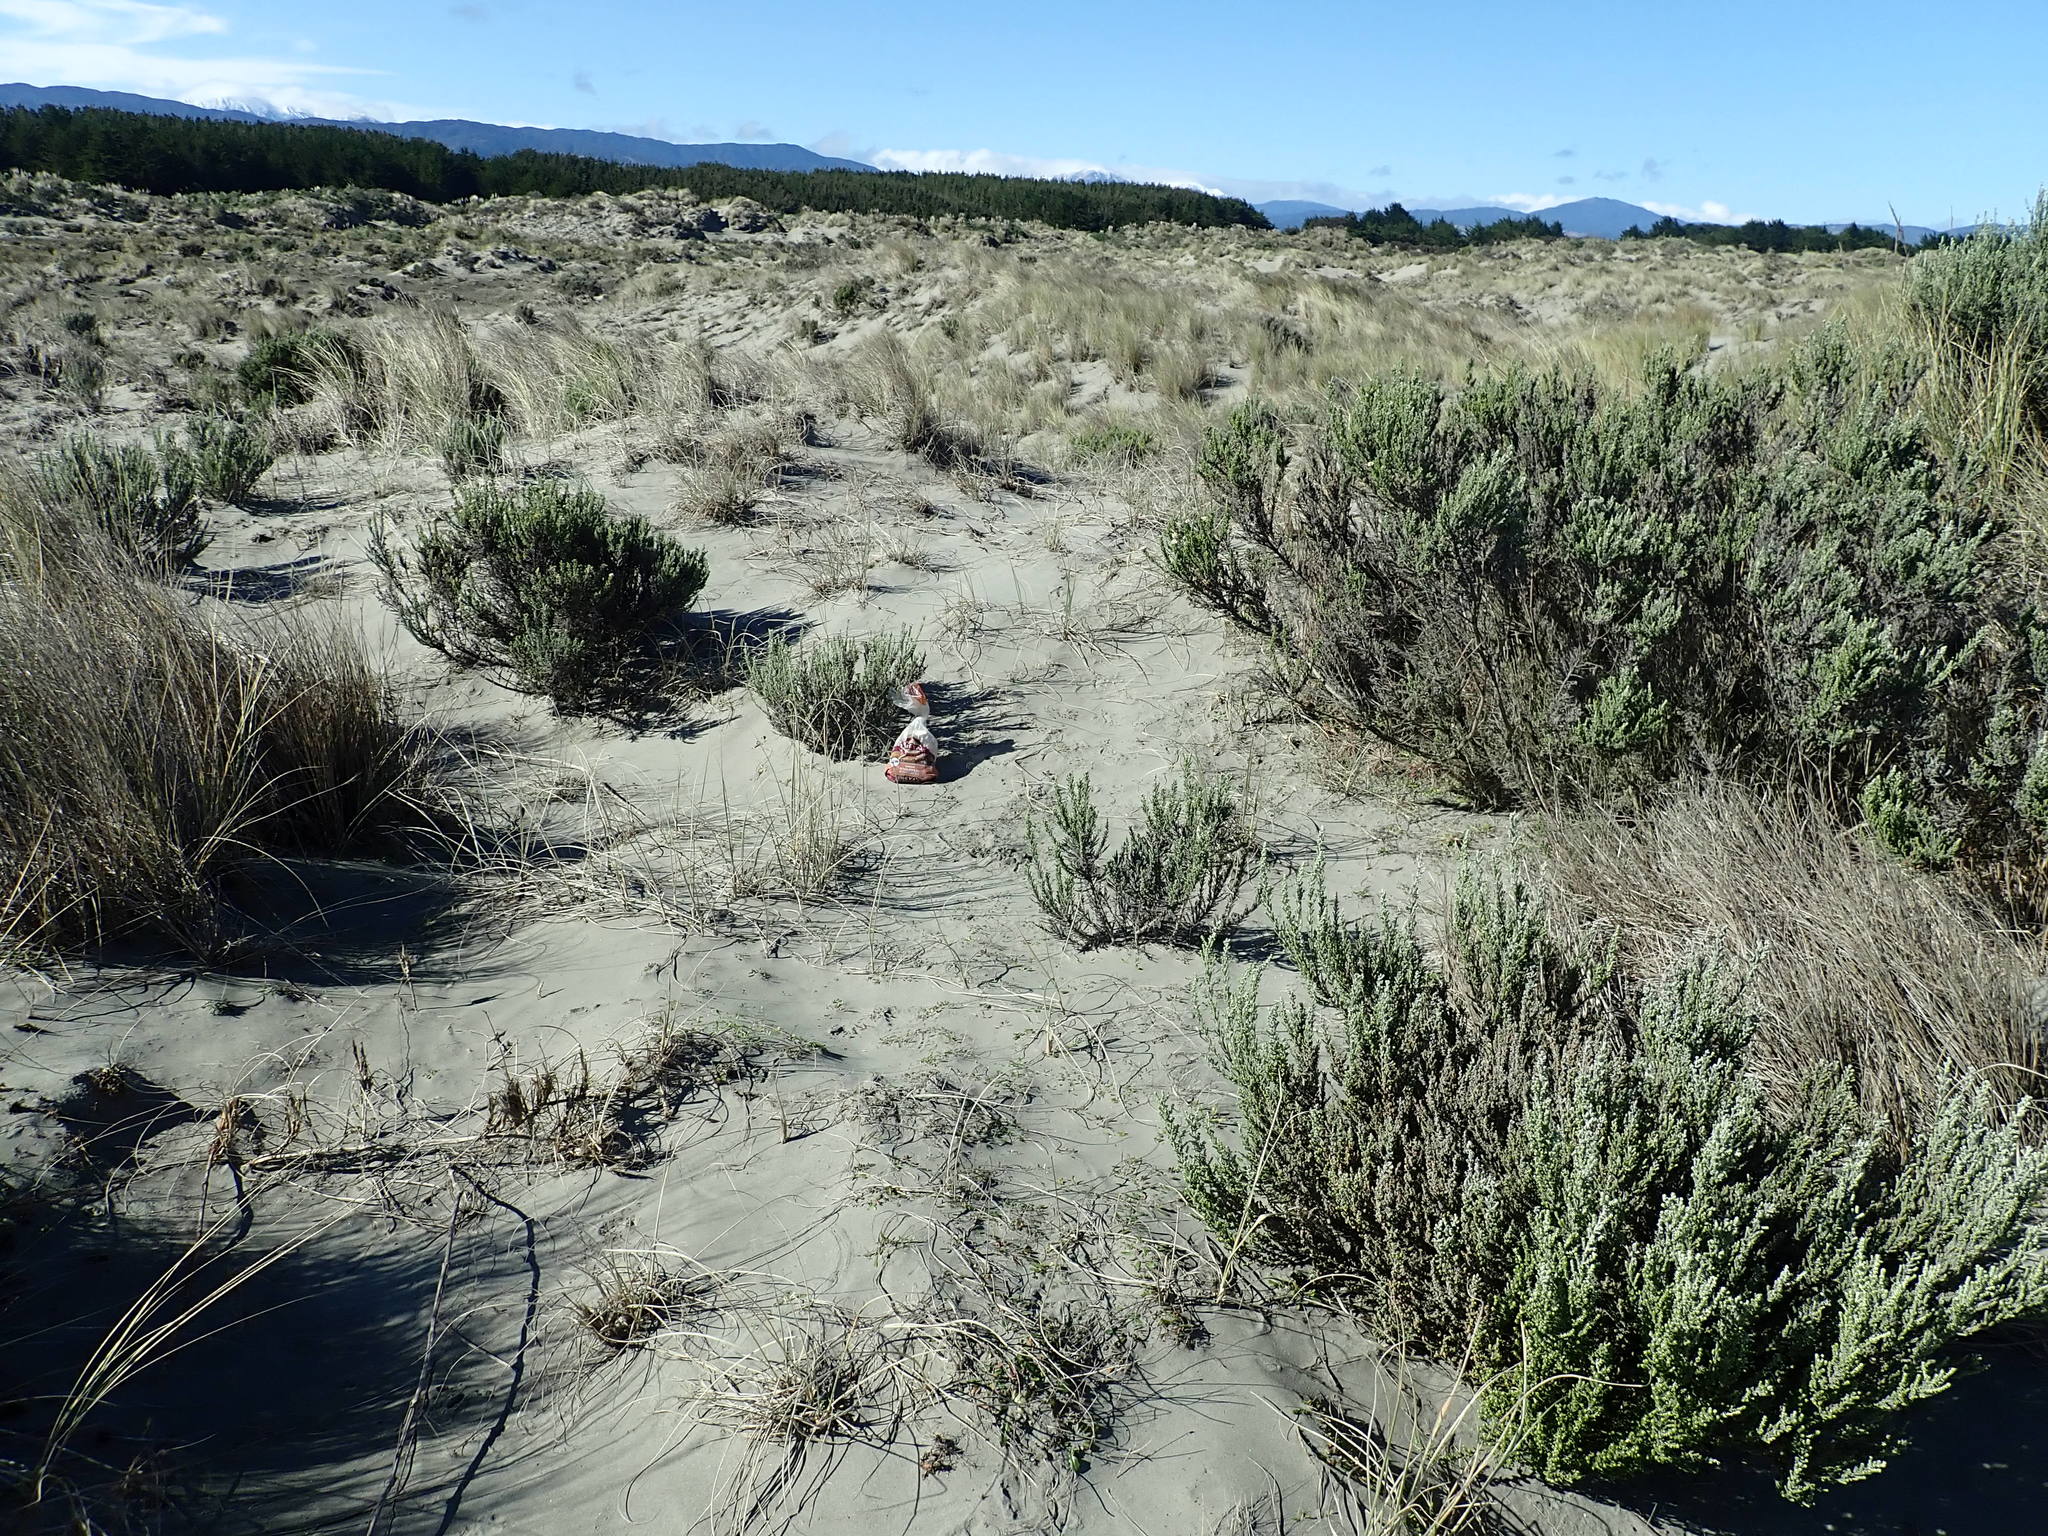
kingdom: Plantae
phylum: Tracheophyta
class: Magnoliopsida
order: Asterales
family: Asteraceae
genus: Ozothamnus
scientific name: Ozothamnus leptophyllus
